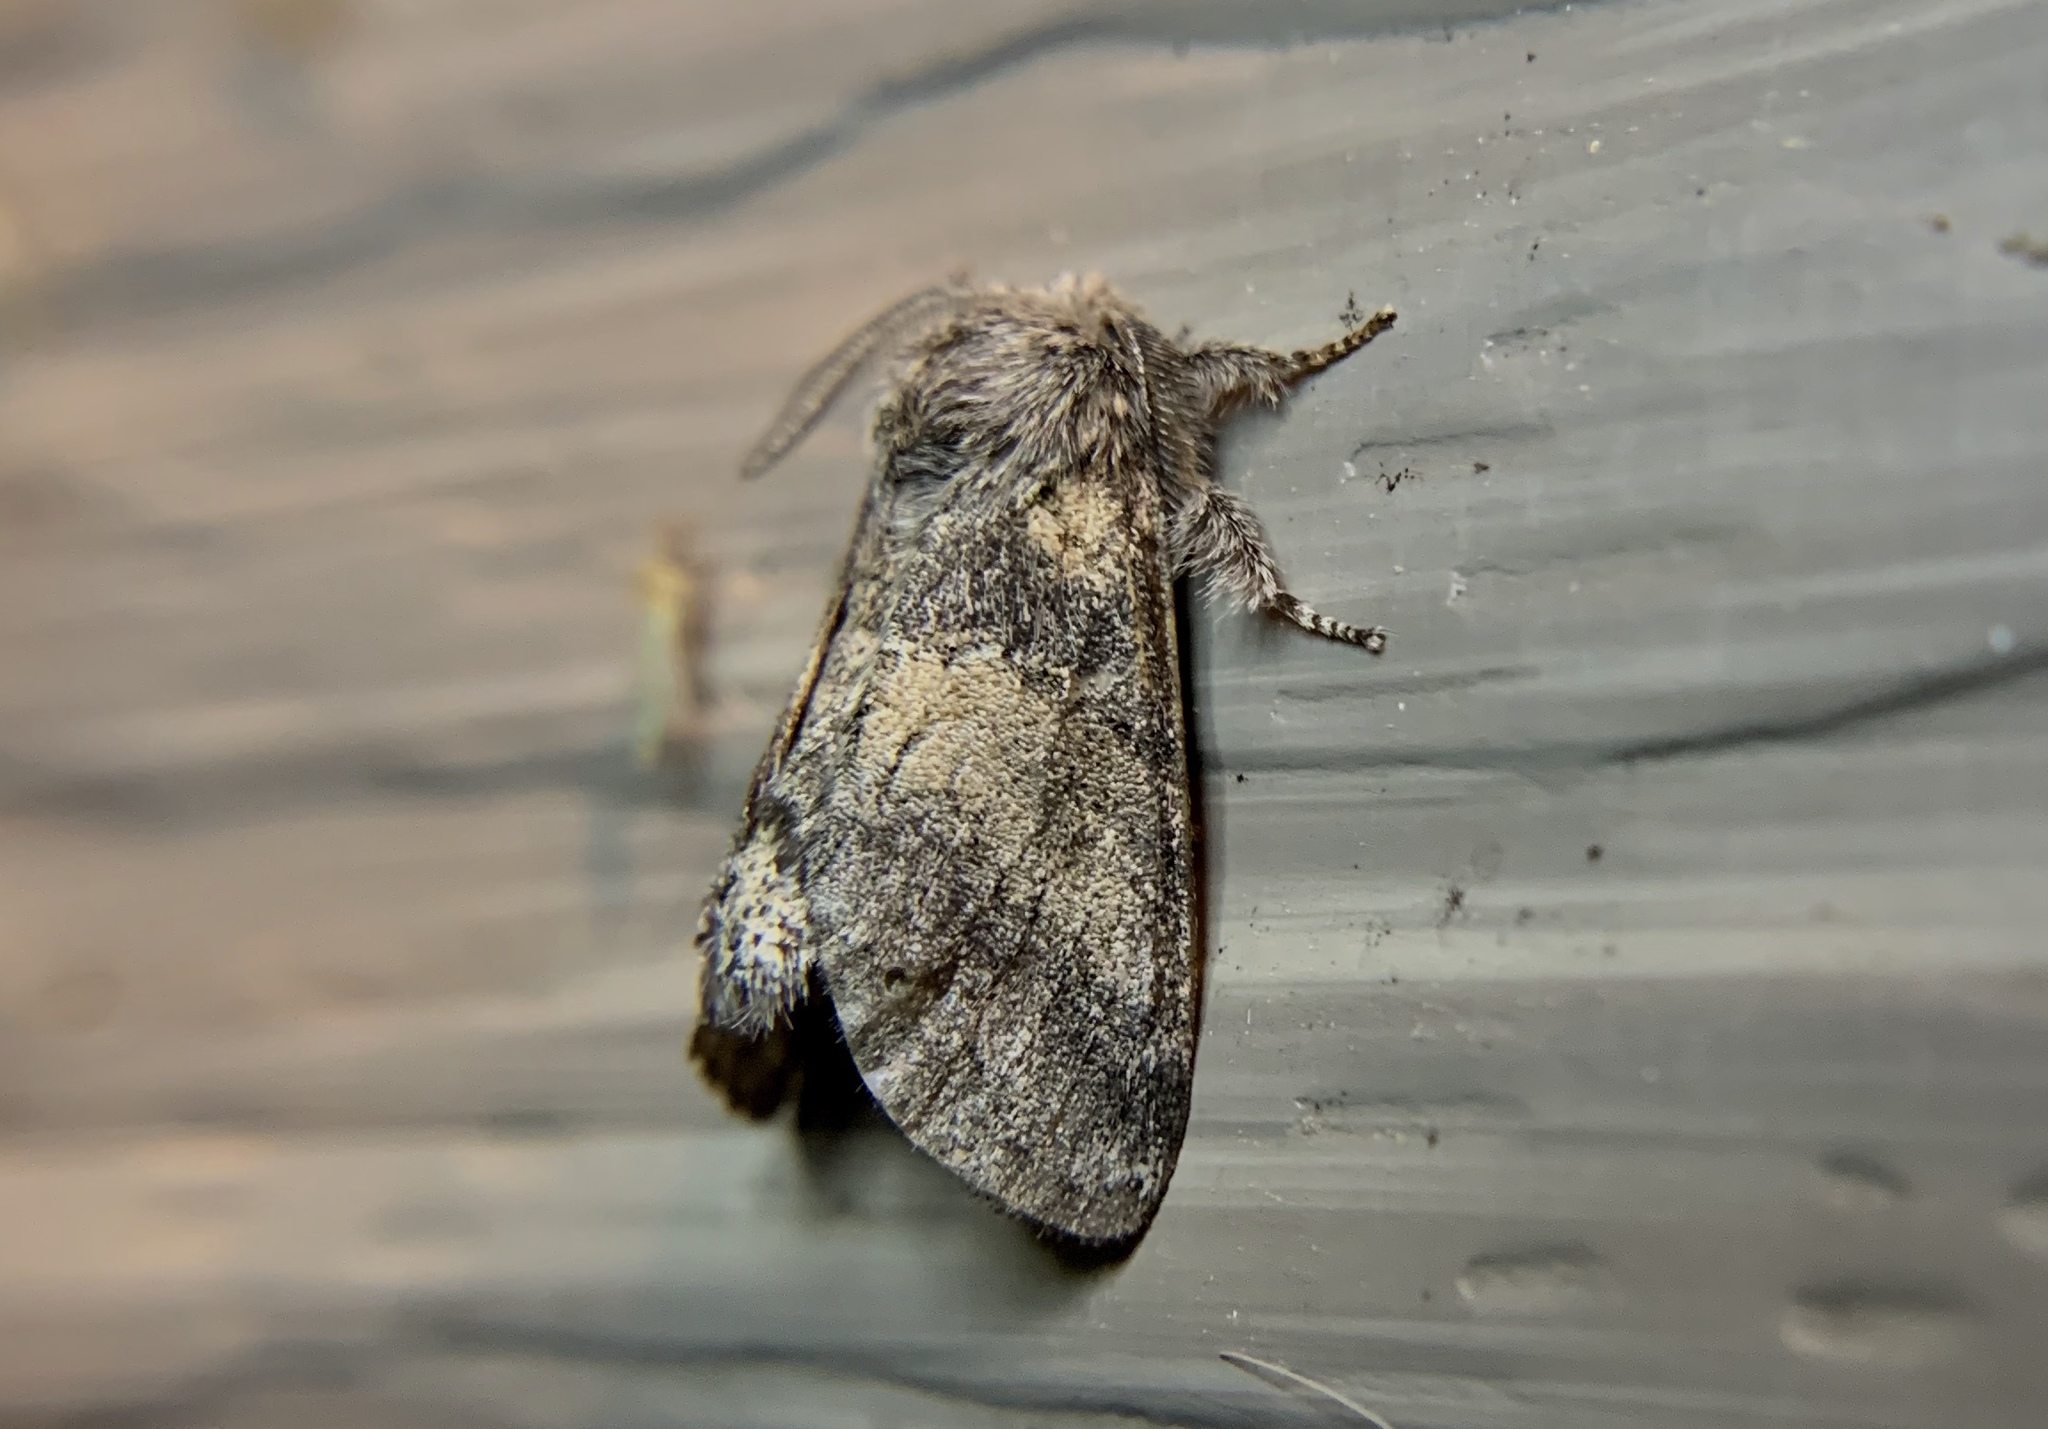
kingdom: Animalia
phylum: Arthropoda
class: Insecta
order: Lepidoptera
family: Notodontidae
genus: Gluphisia
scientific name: Gluphisia septentrionis
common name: Common gluphisia
